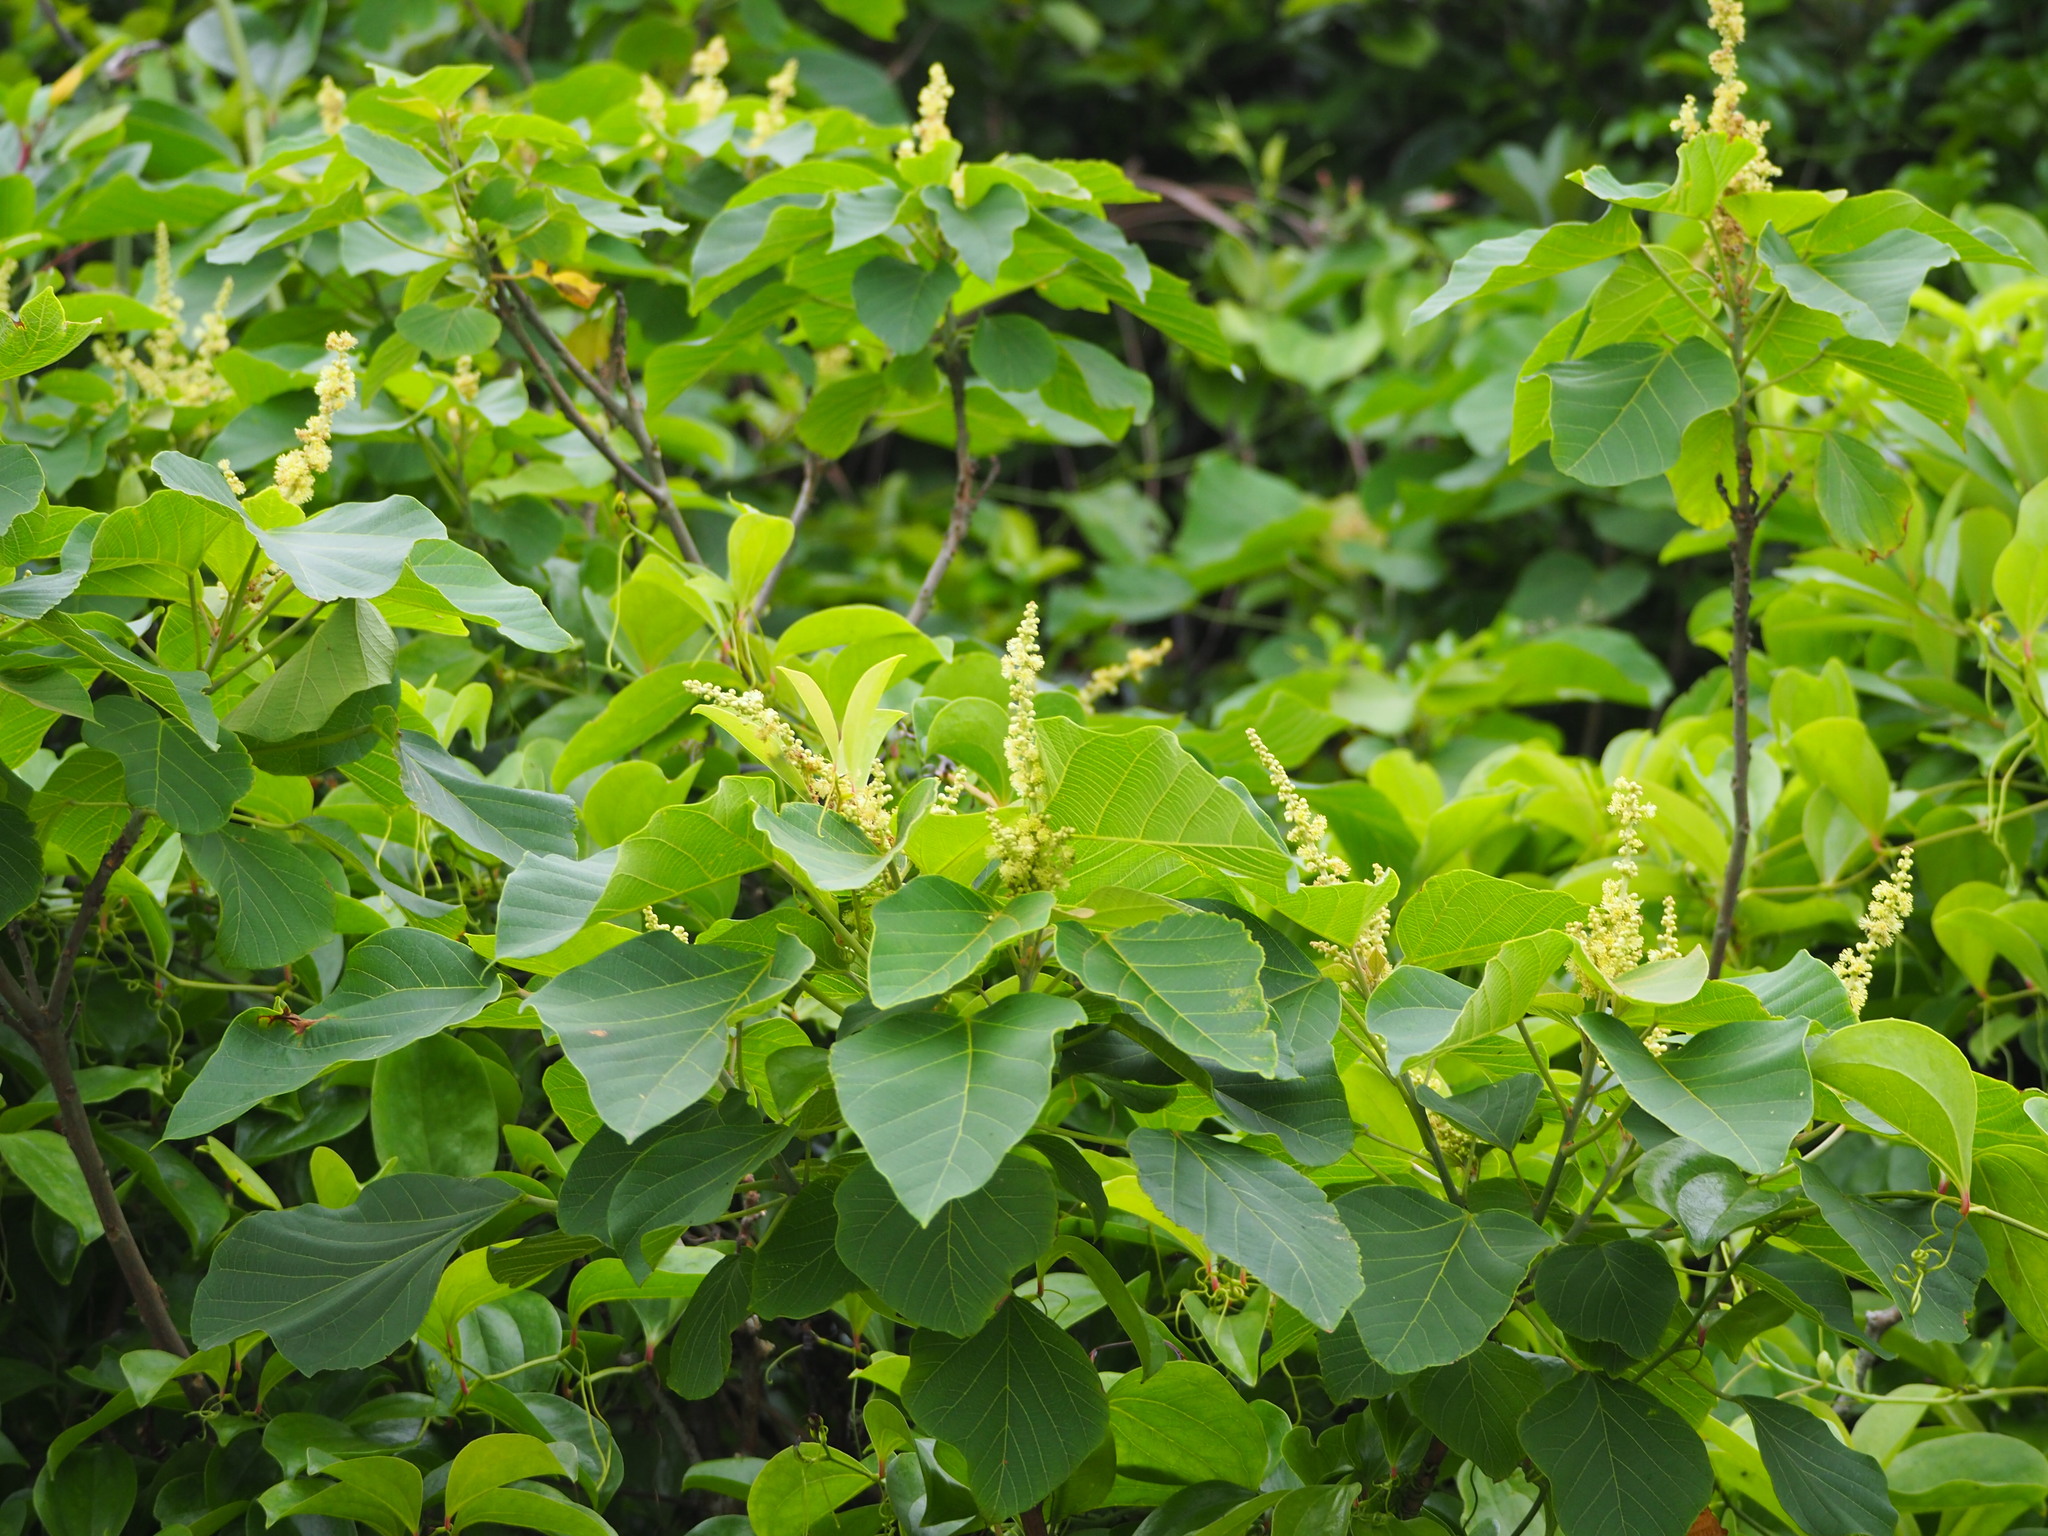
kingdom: Plantae
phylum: Tracheophyta
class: Magnoliopsida
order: Malpighiales
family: Euphorbiaceae
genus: Mallotus
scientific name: Mallotus japonicus
